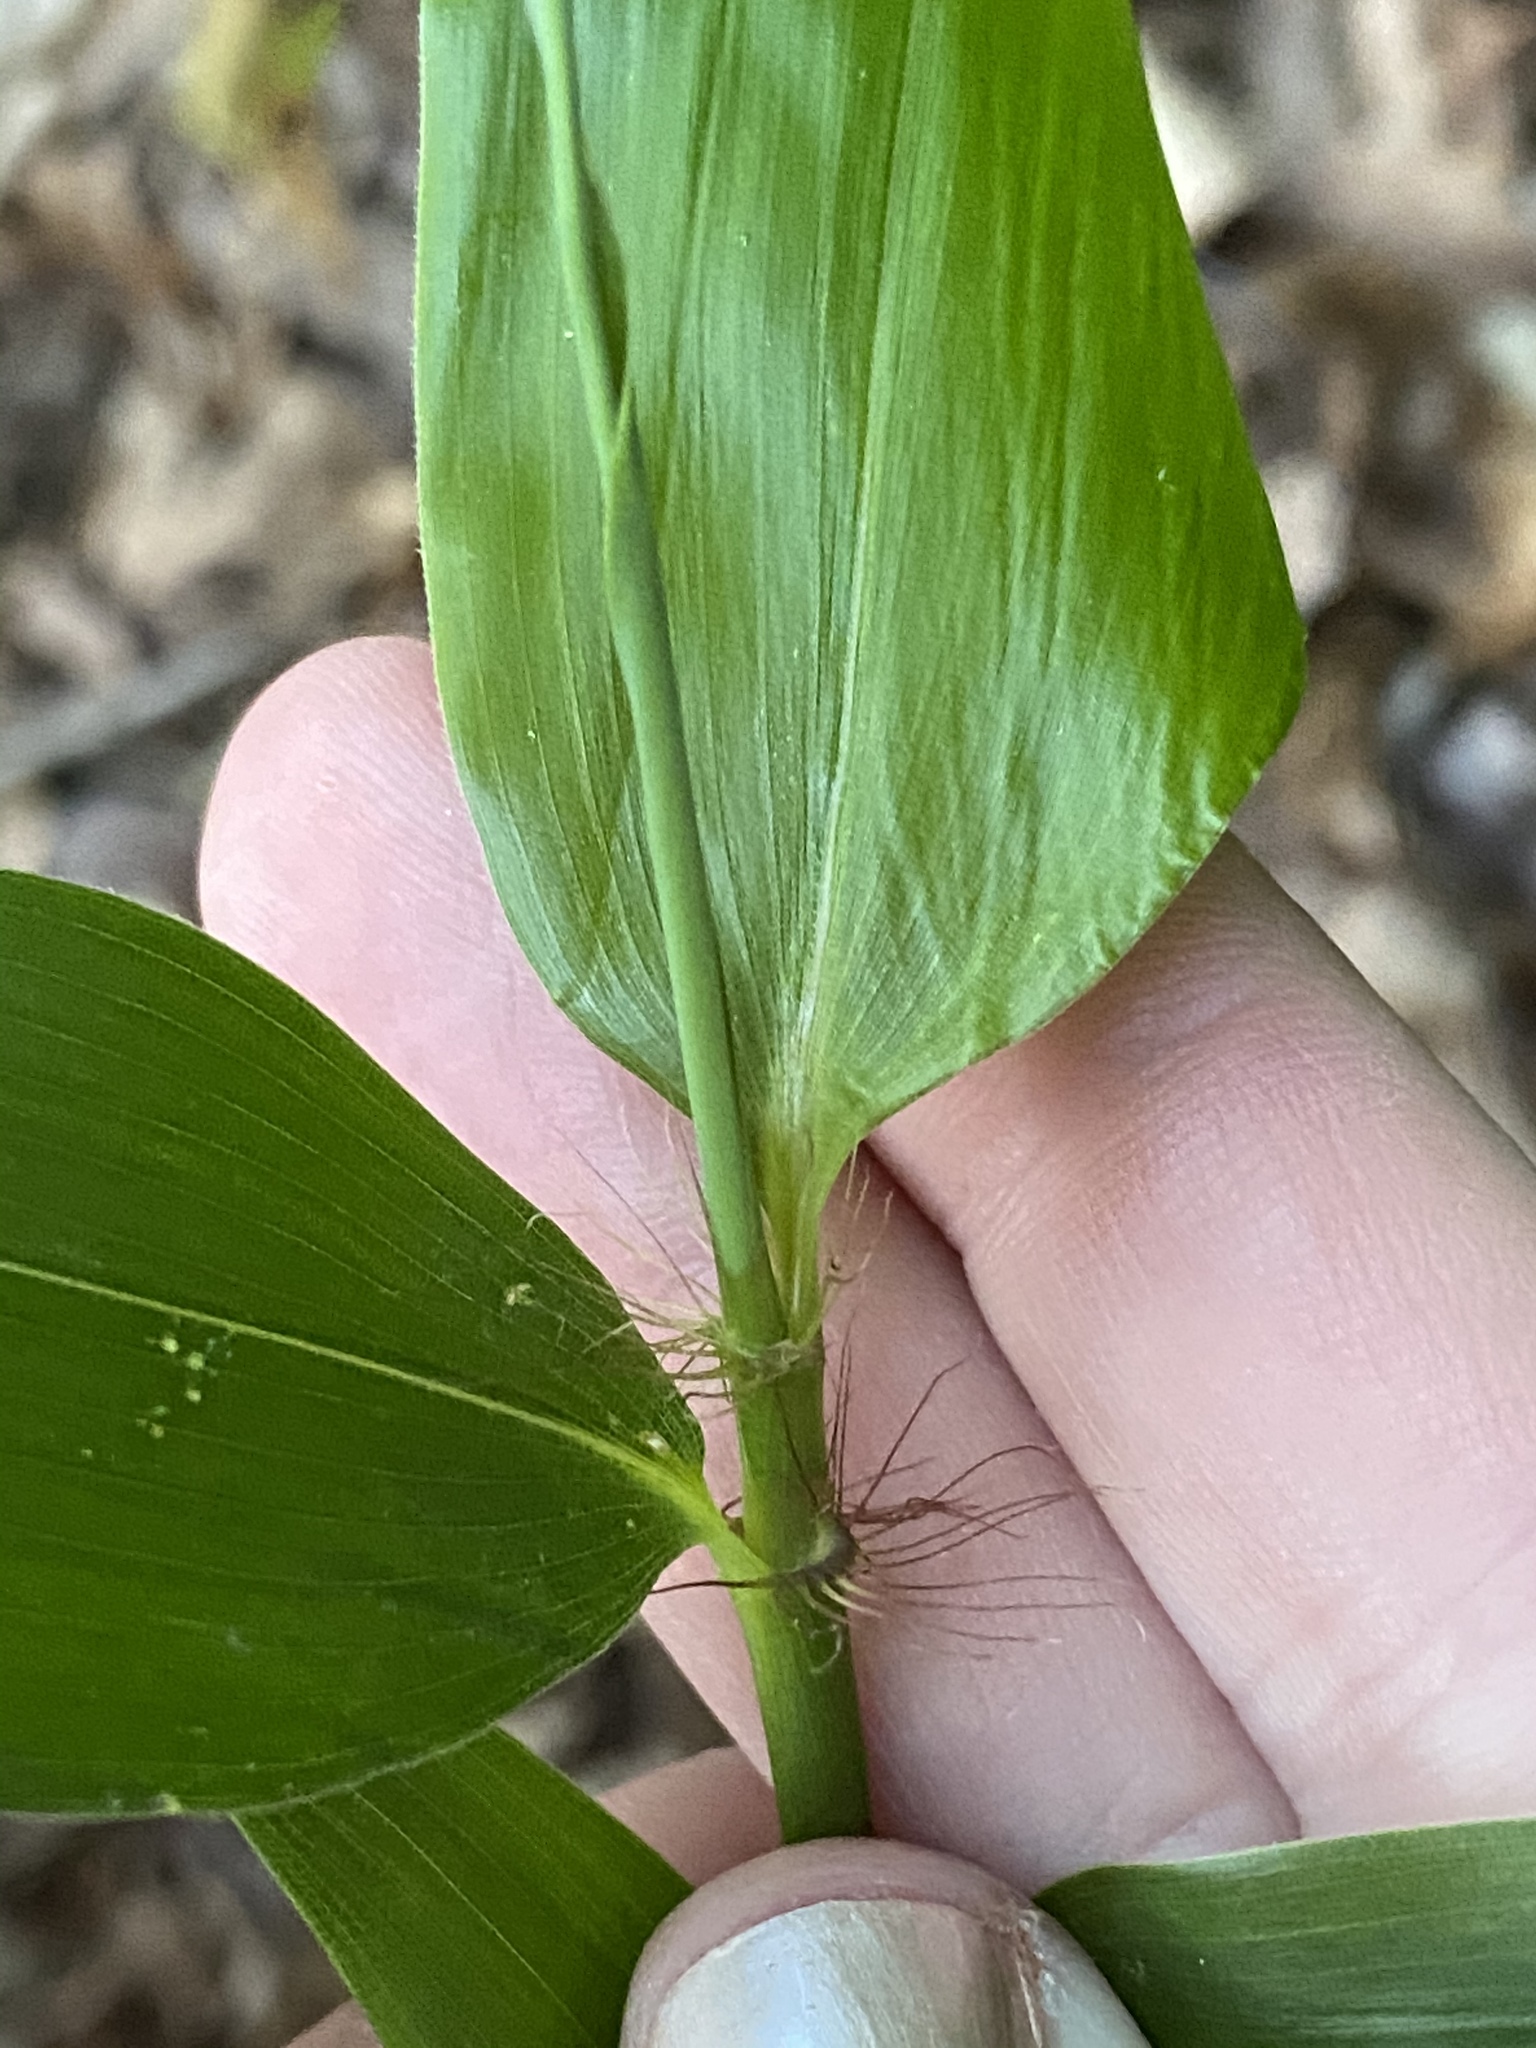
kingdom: Plantae
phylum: Tracheophyta
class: Liliopsida
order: Poales
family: Poaceae
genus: Arundinaria
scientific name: Arundinaria gigantea
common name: Giant cane
